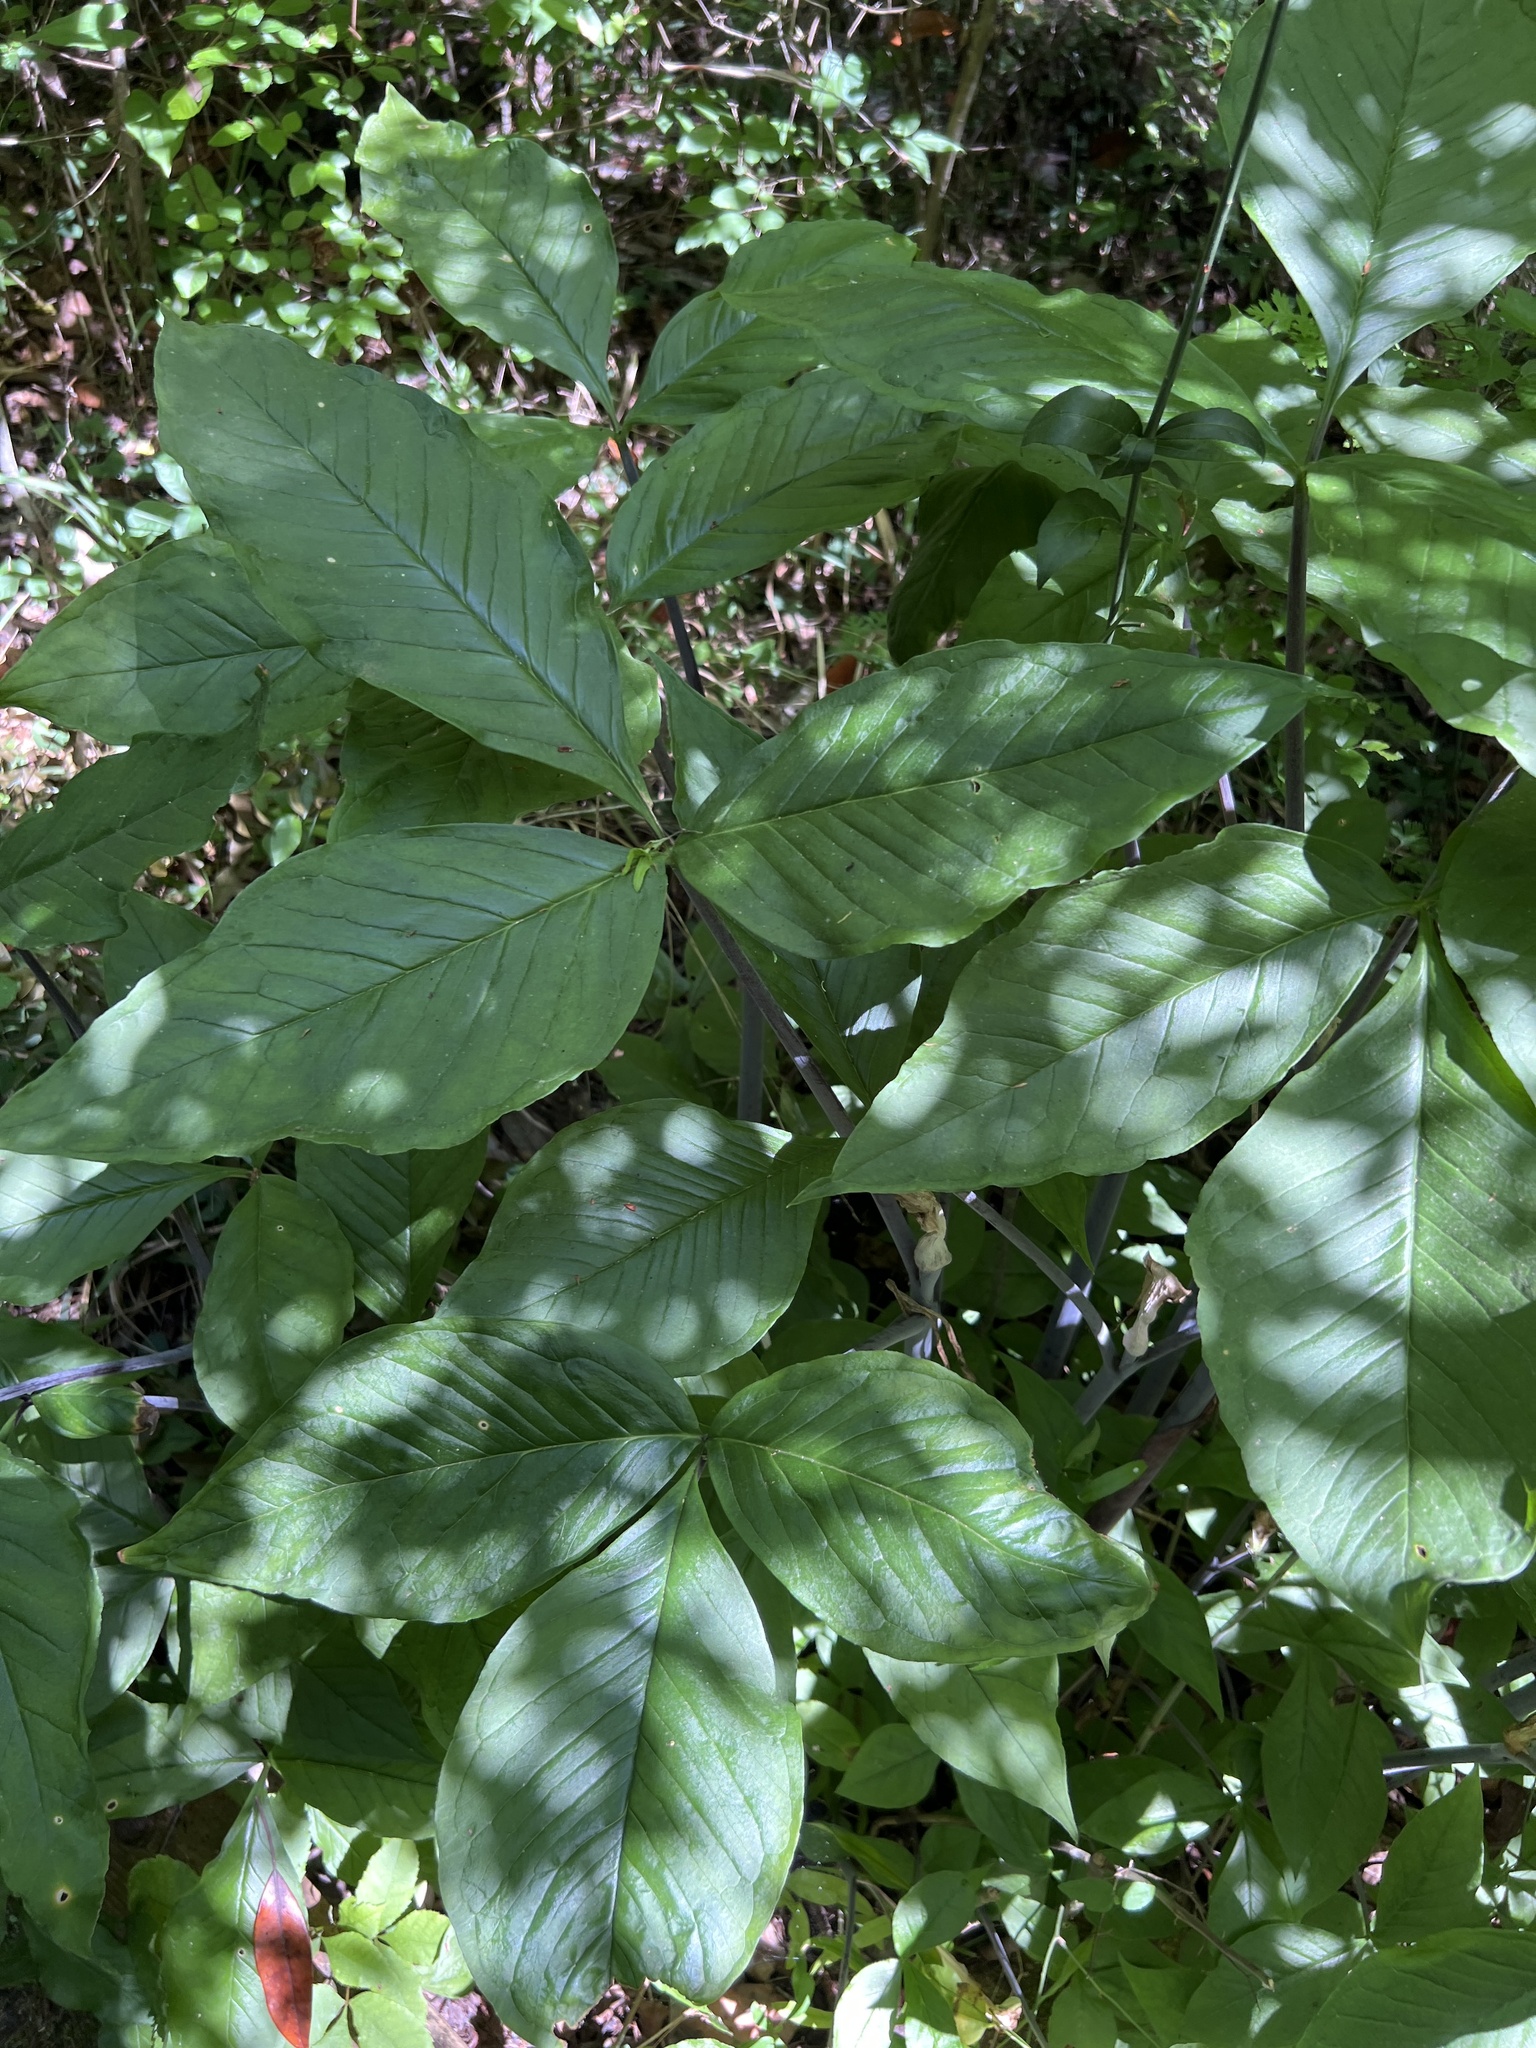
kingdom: Plantae
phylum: Tracheophyta
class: Liliopsida
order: Alismatales
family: Araceae
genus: Arisaema
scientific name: Arisaema acuminatum
